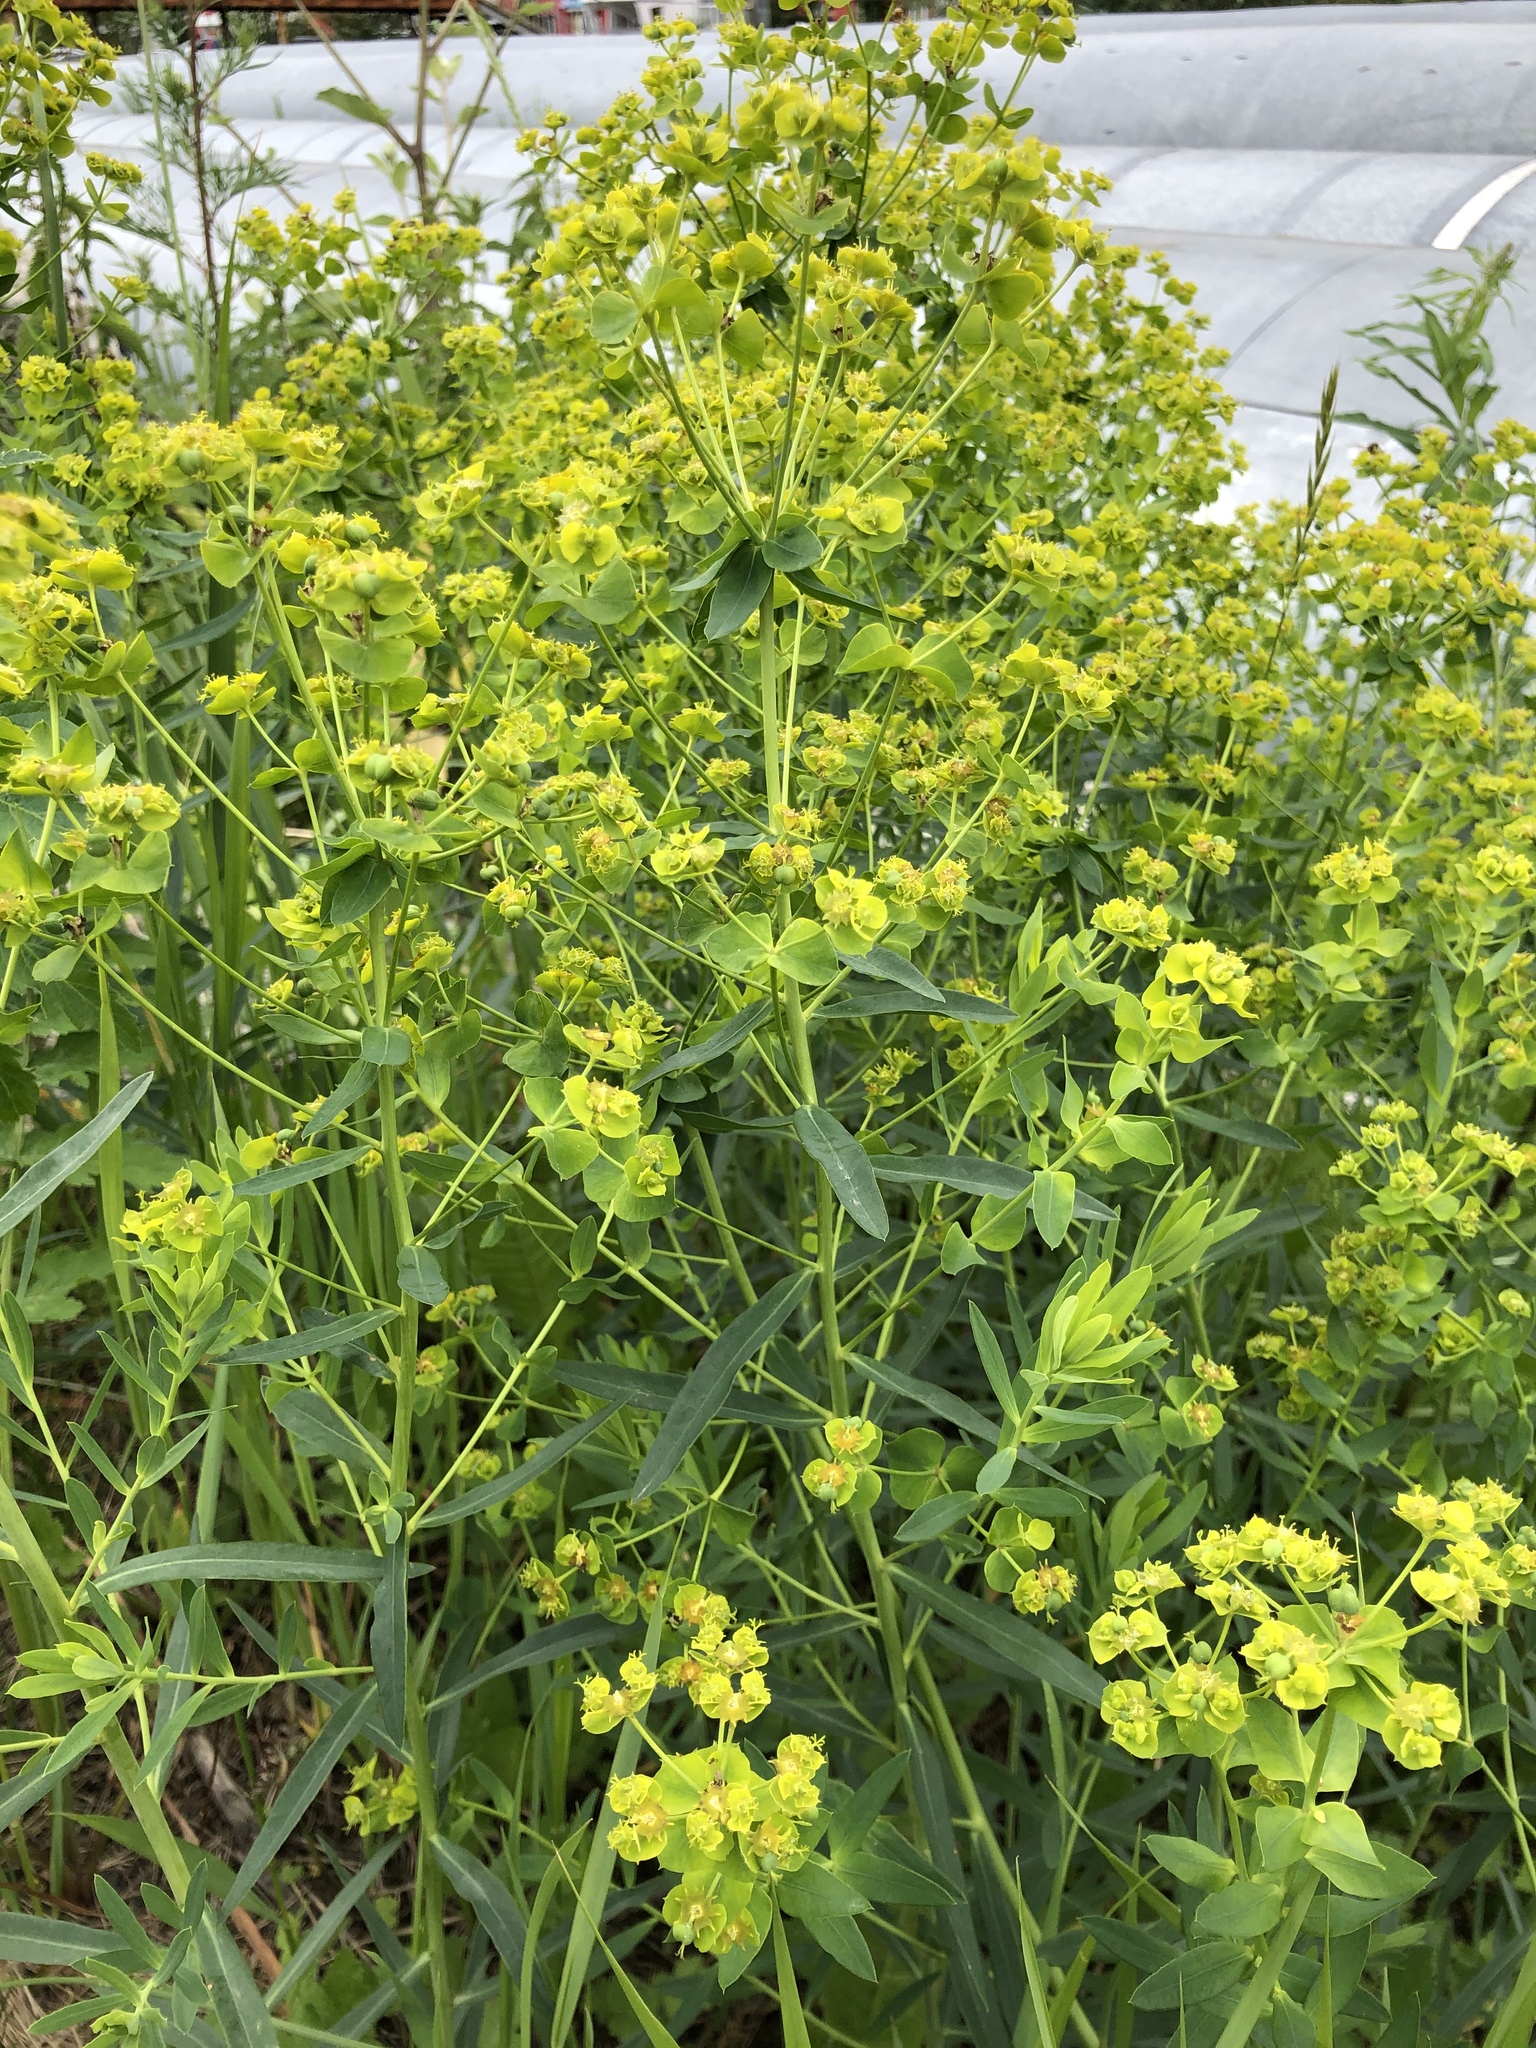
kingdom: Plantae
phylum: Tracheophyta
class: Magnoliopsida
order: Malpighiales
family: Euphorbiaceae
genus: Euphorbia
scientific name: Euphorbia virgata
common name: Leafy spurge
